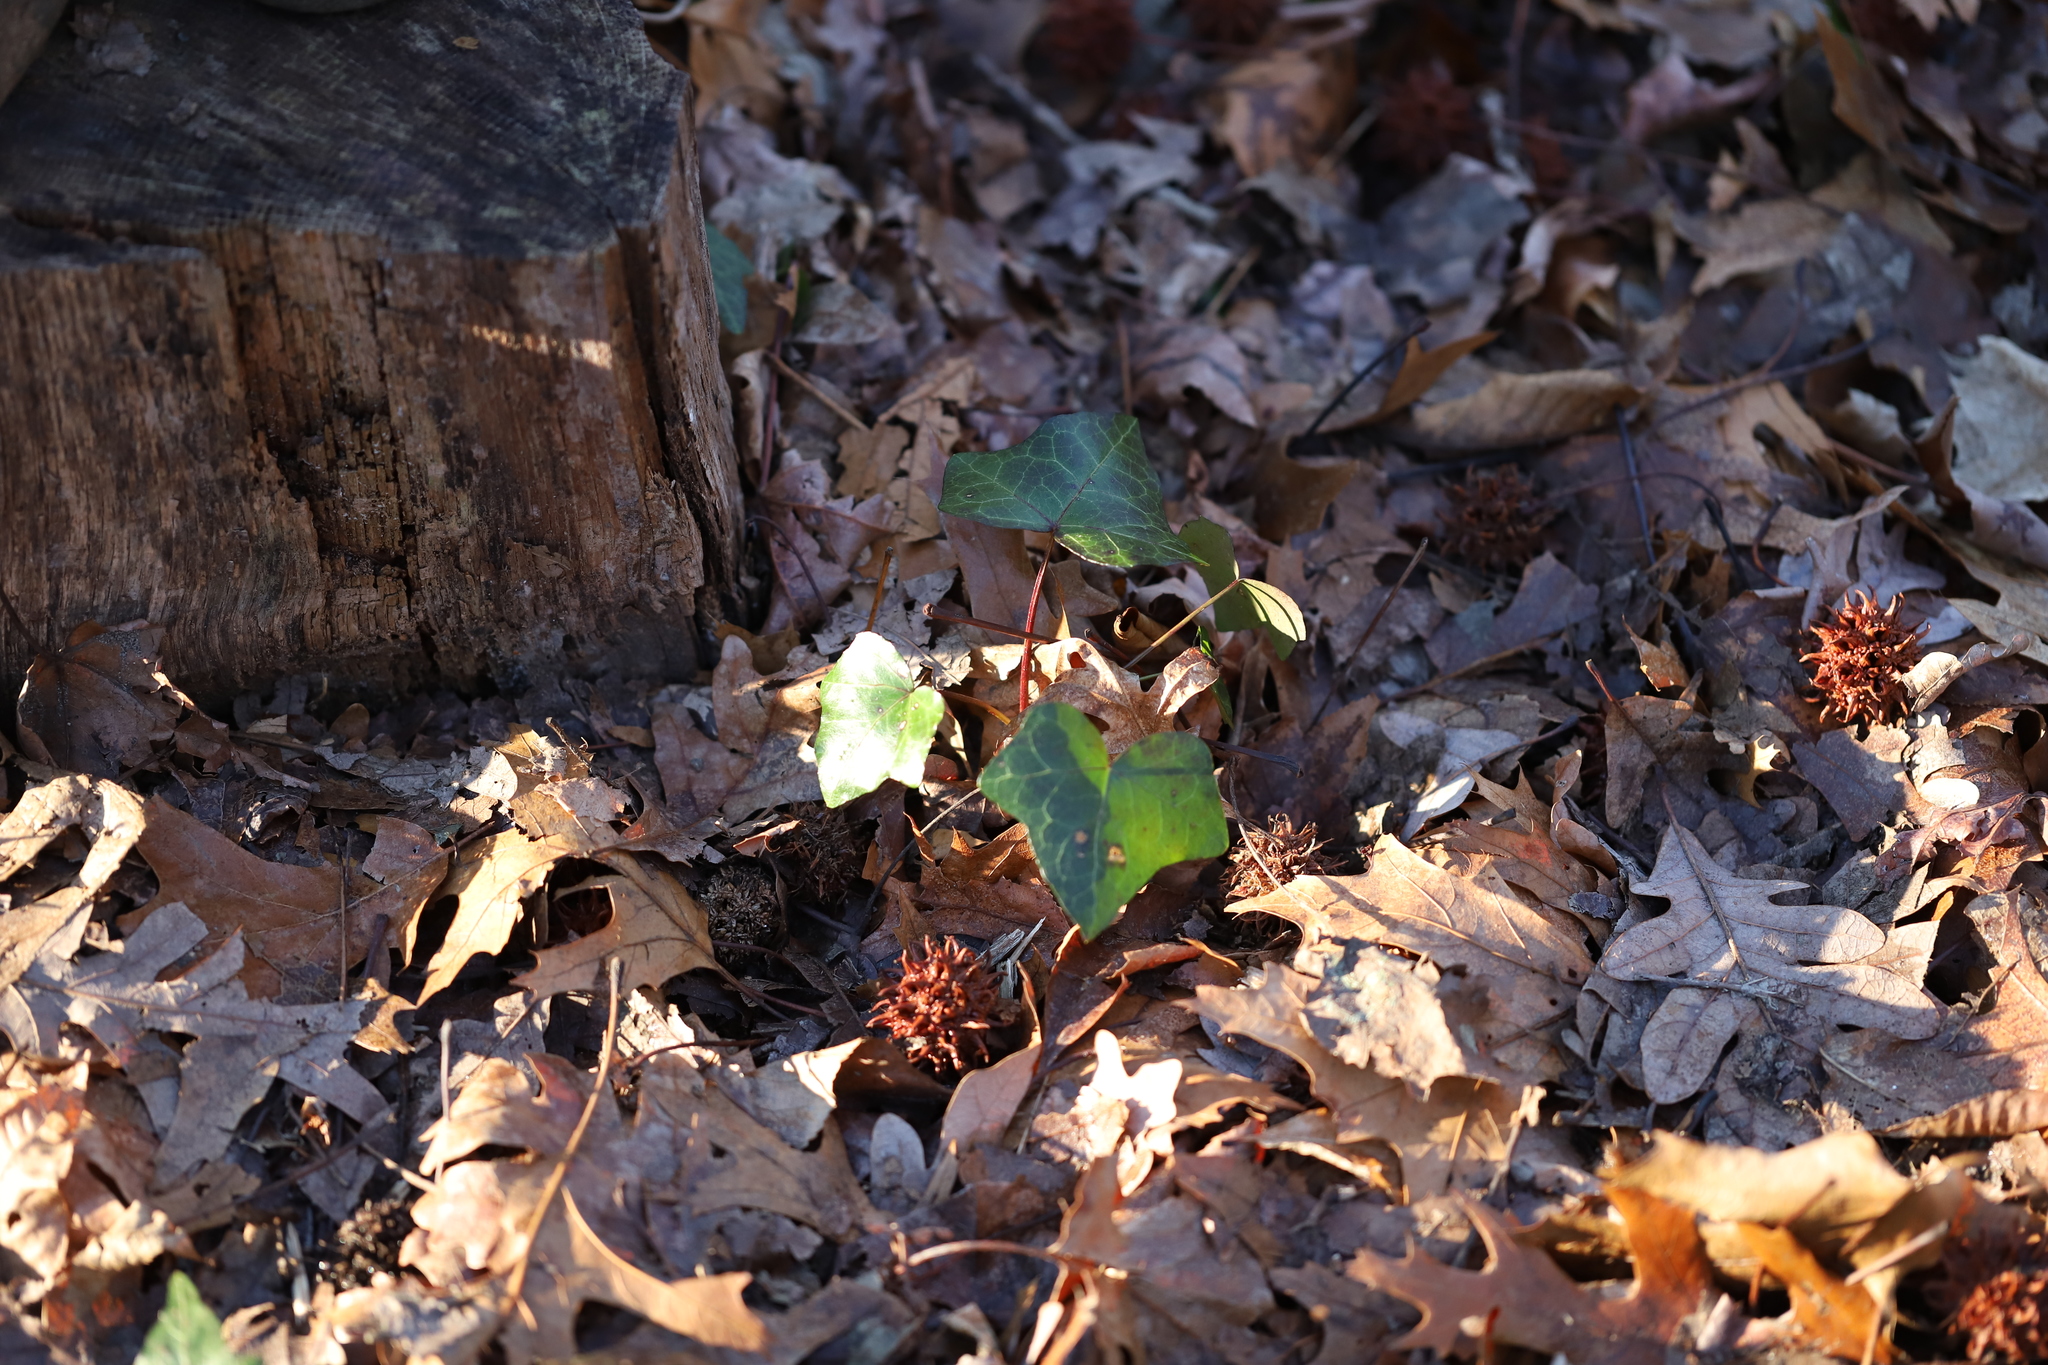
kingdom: Plantae
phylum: Tracheophyta
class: Magnoliopsida
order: Apiales
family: Araliaceae
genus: Hedera
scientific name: Hedera helix
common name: Ivy
